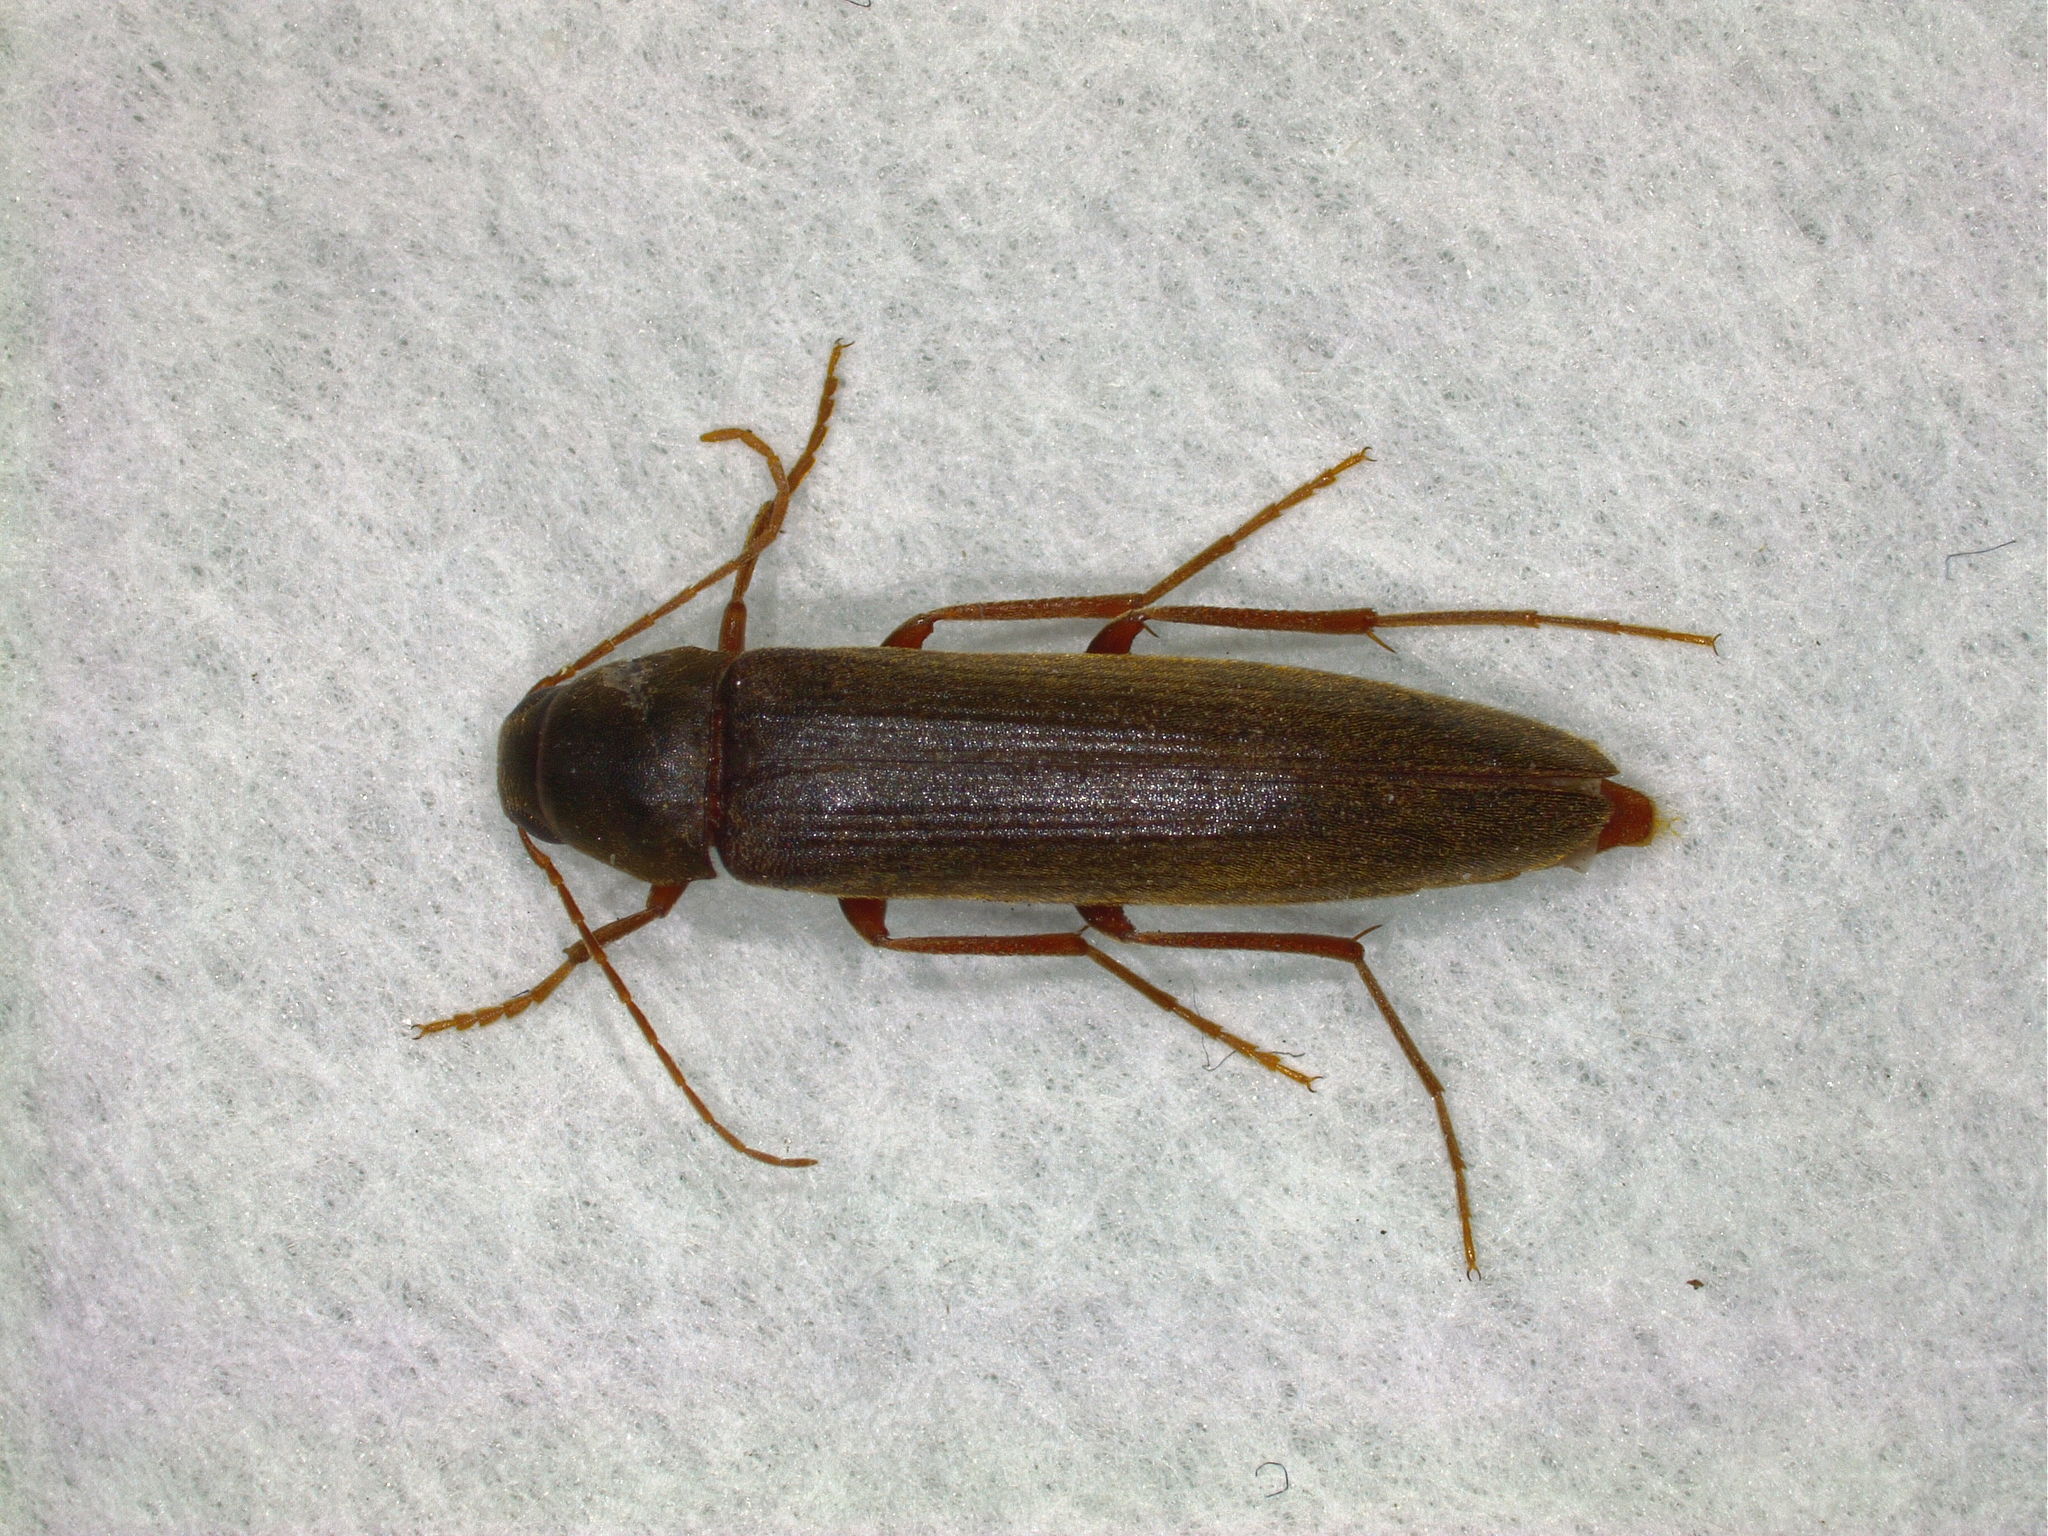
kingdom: Animalia
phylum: Arthropoda
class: Insecta
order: Coleoptera
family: Melandryidae
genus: Serropalpus
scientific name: Serropalpus barbatus
